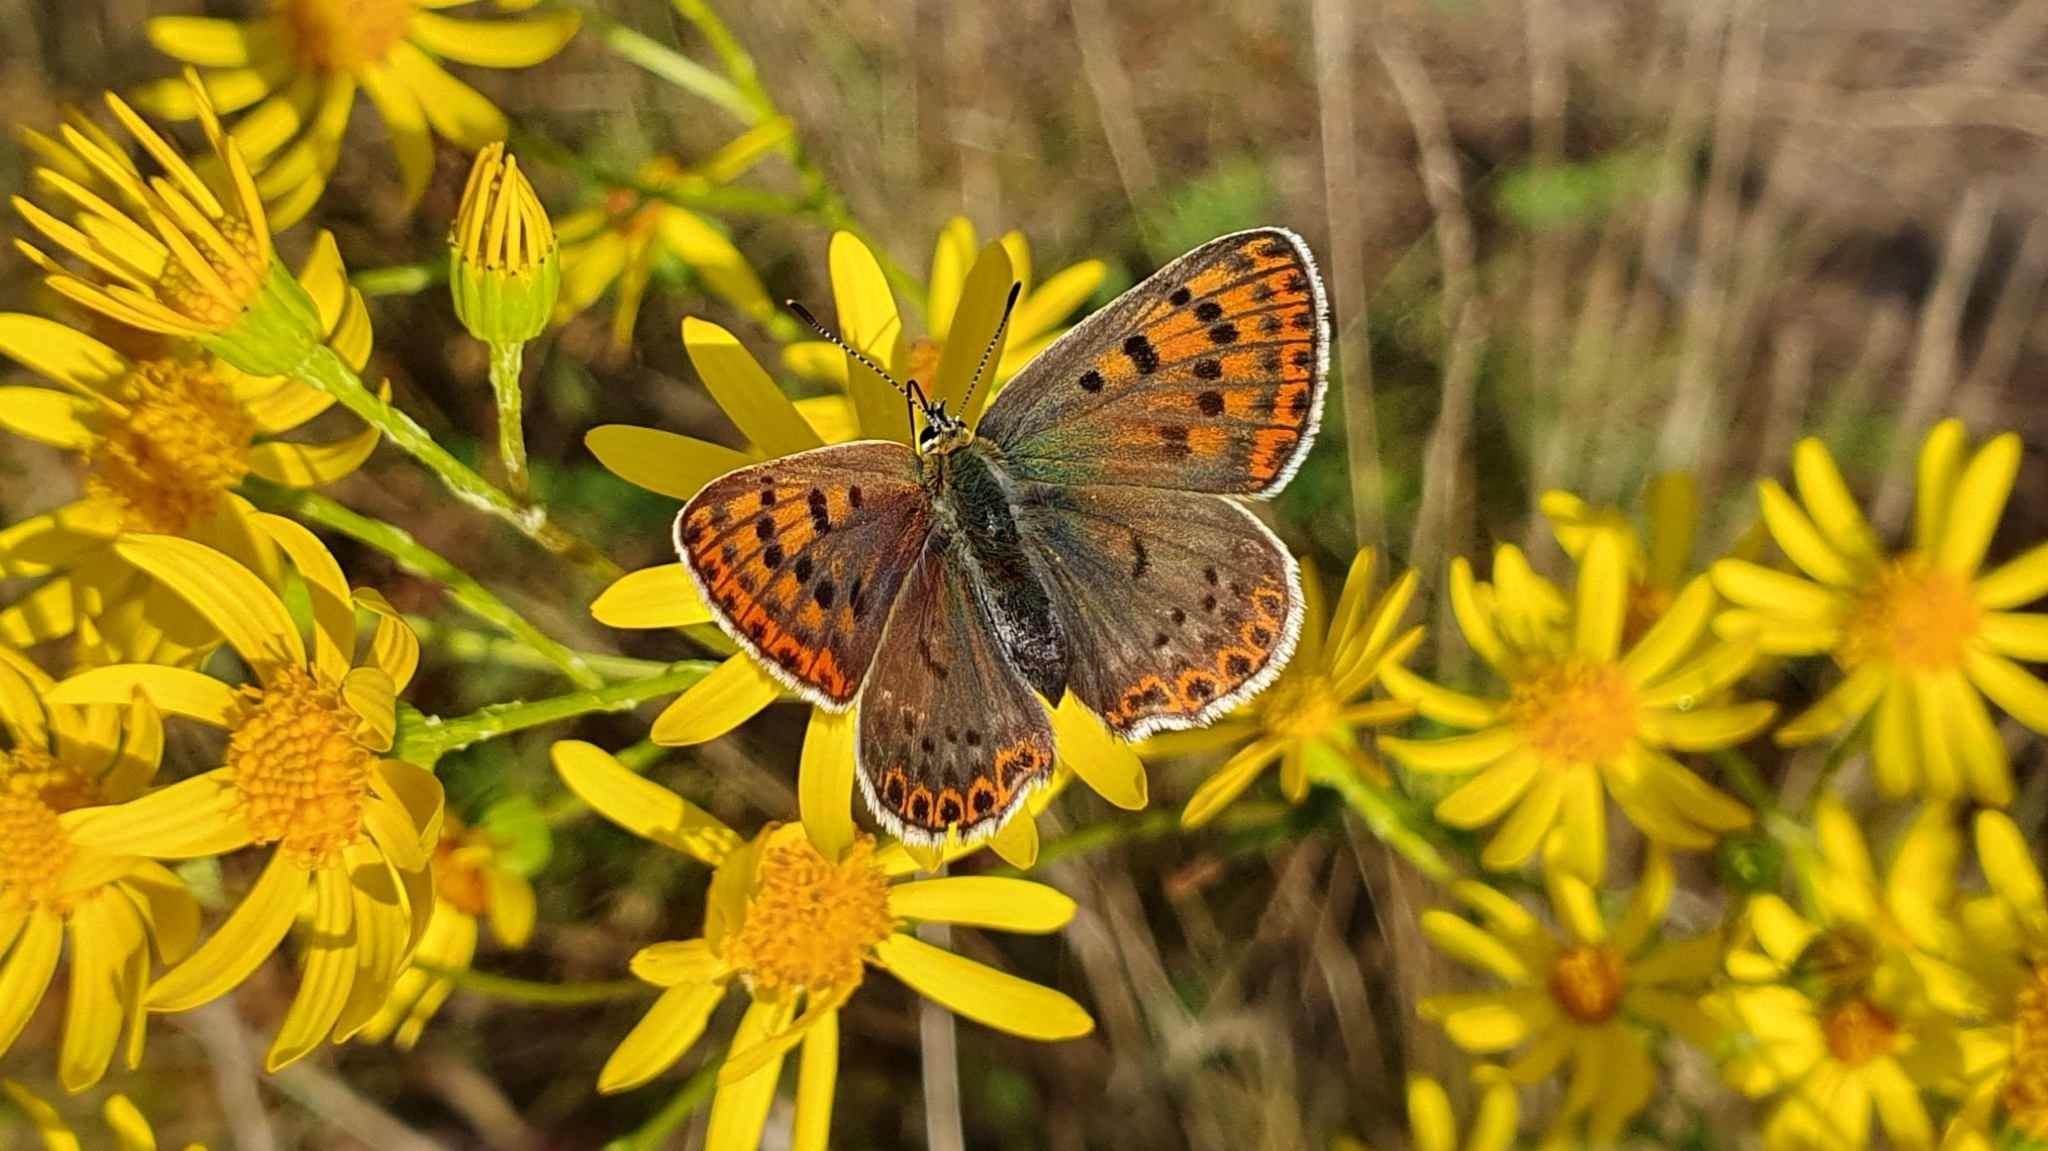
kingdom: Animalia
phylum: Arthropoda
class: Insecta
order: Lepidoptera
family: Lycaenidae
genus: Loweia
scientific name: Loweia tityrus
